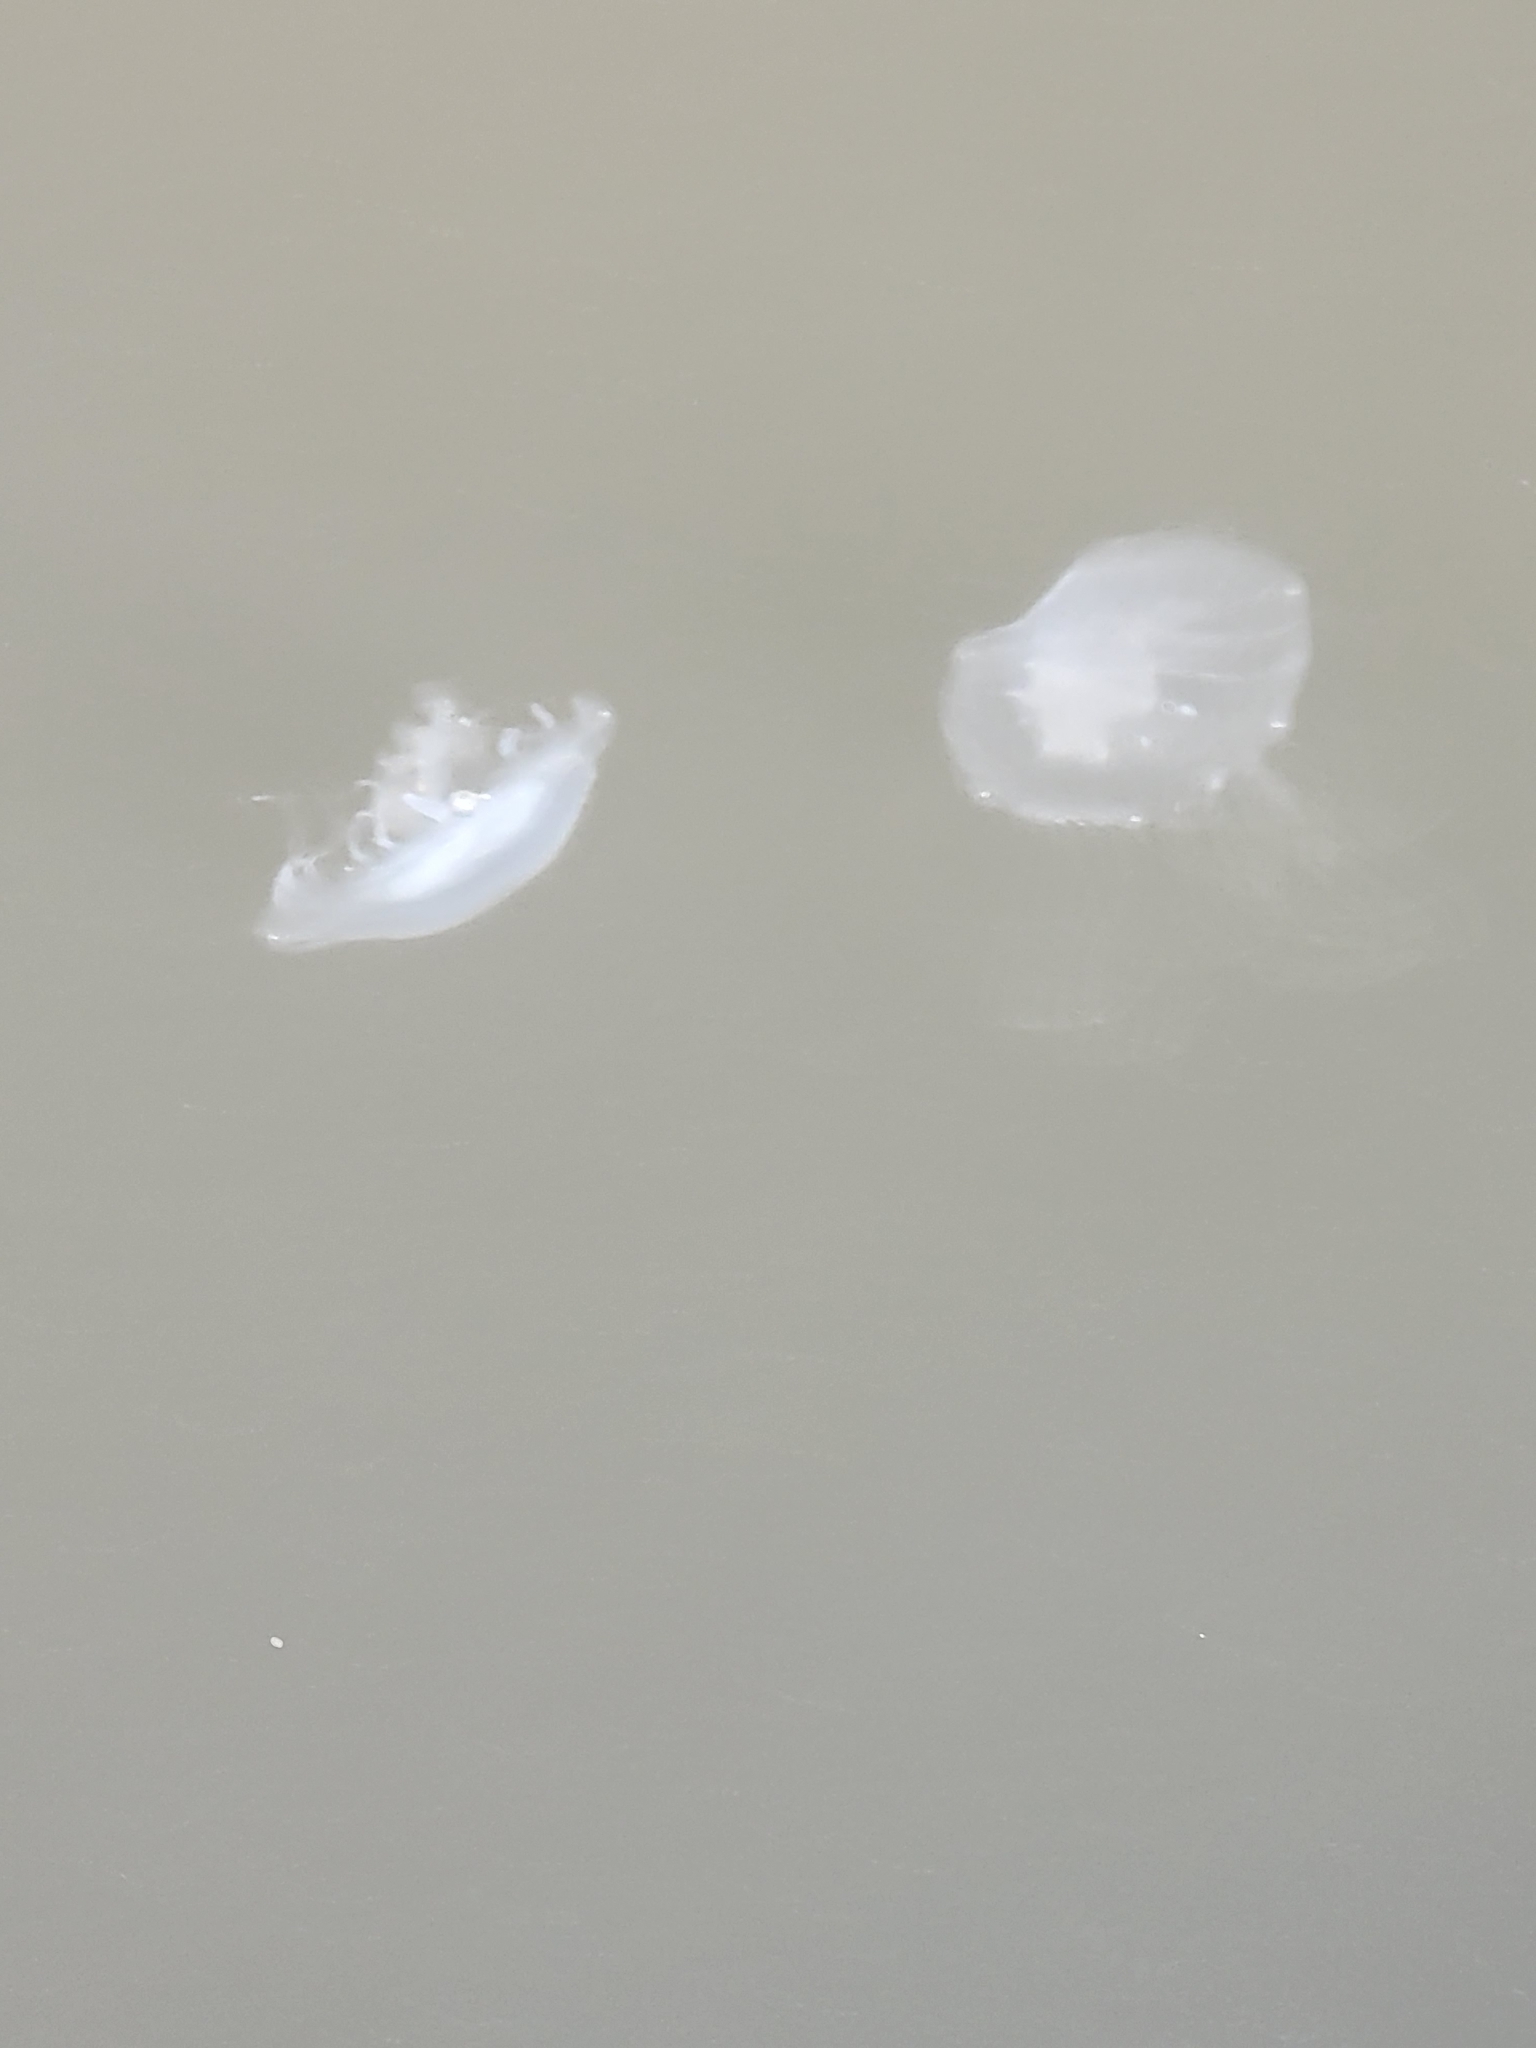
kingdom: Animalia
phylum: Cnidaria
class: Scyphozoa
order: Semaeostomeae
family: Pelagiidae
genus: Chrysaora
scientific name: Chrysaora chesapeakei
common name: Bay nettle
